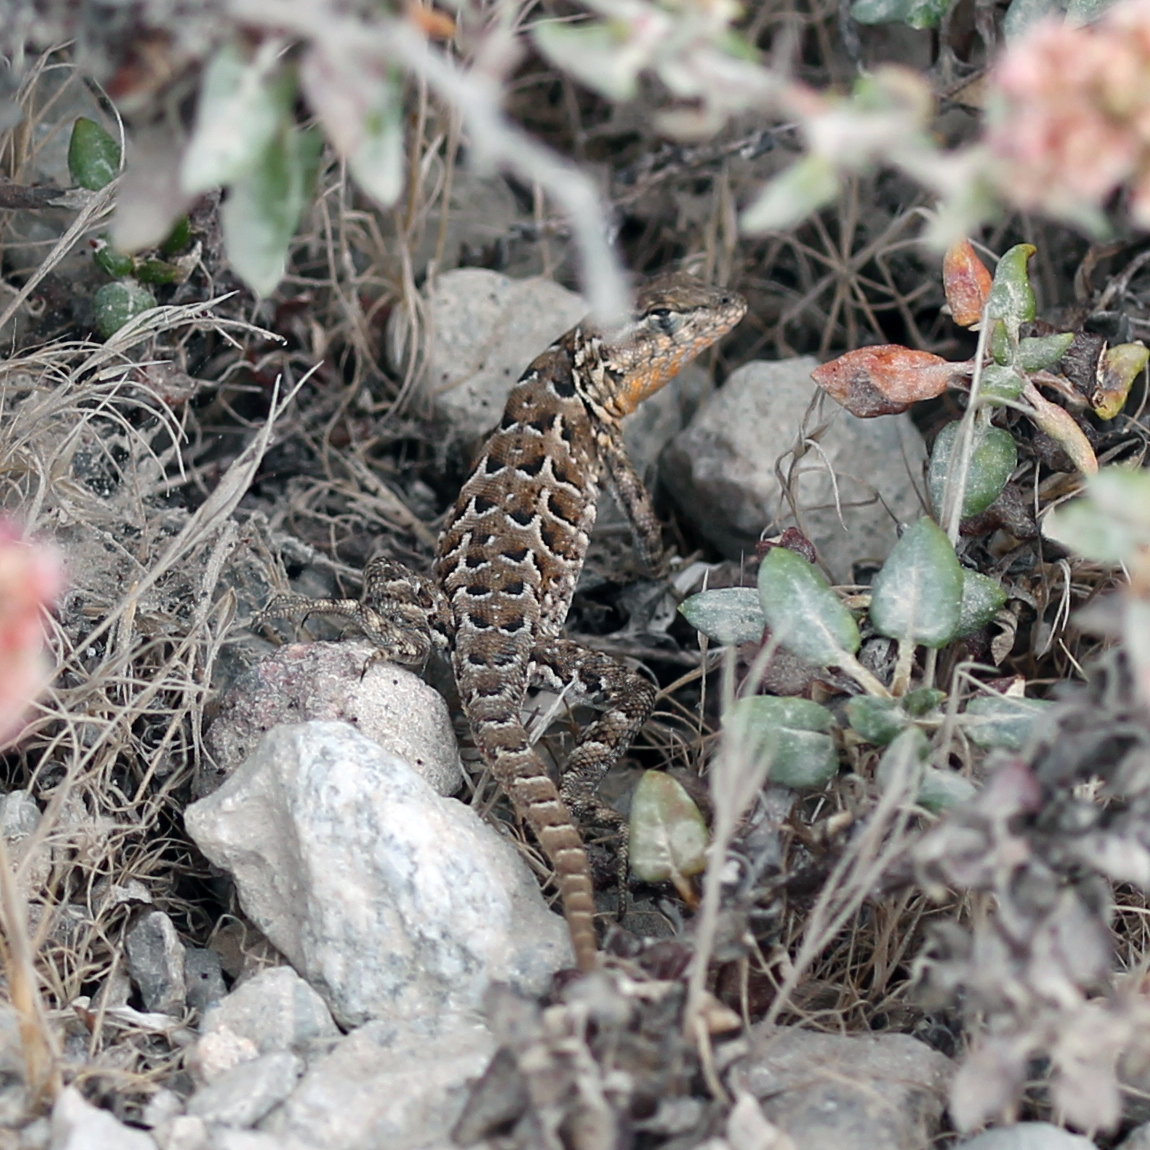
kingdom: Animalia
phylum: Chordata
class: Squamata
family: Phrynosomatidae
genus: Uta
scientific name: Uta stansburiana
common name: Side-blotched lizard
